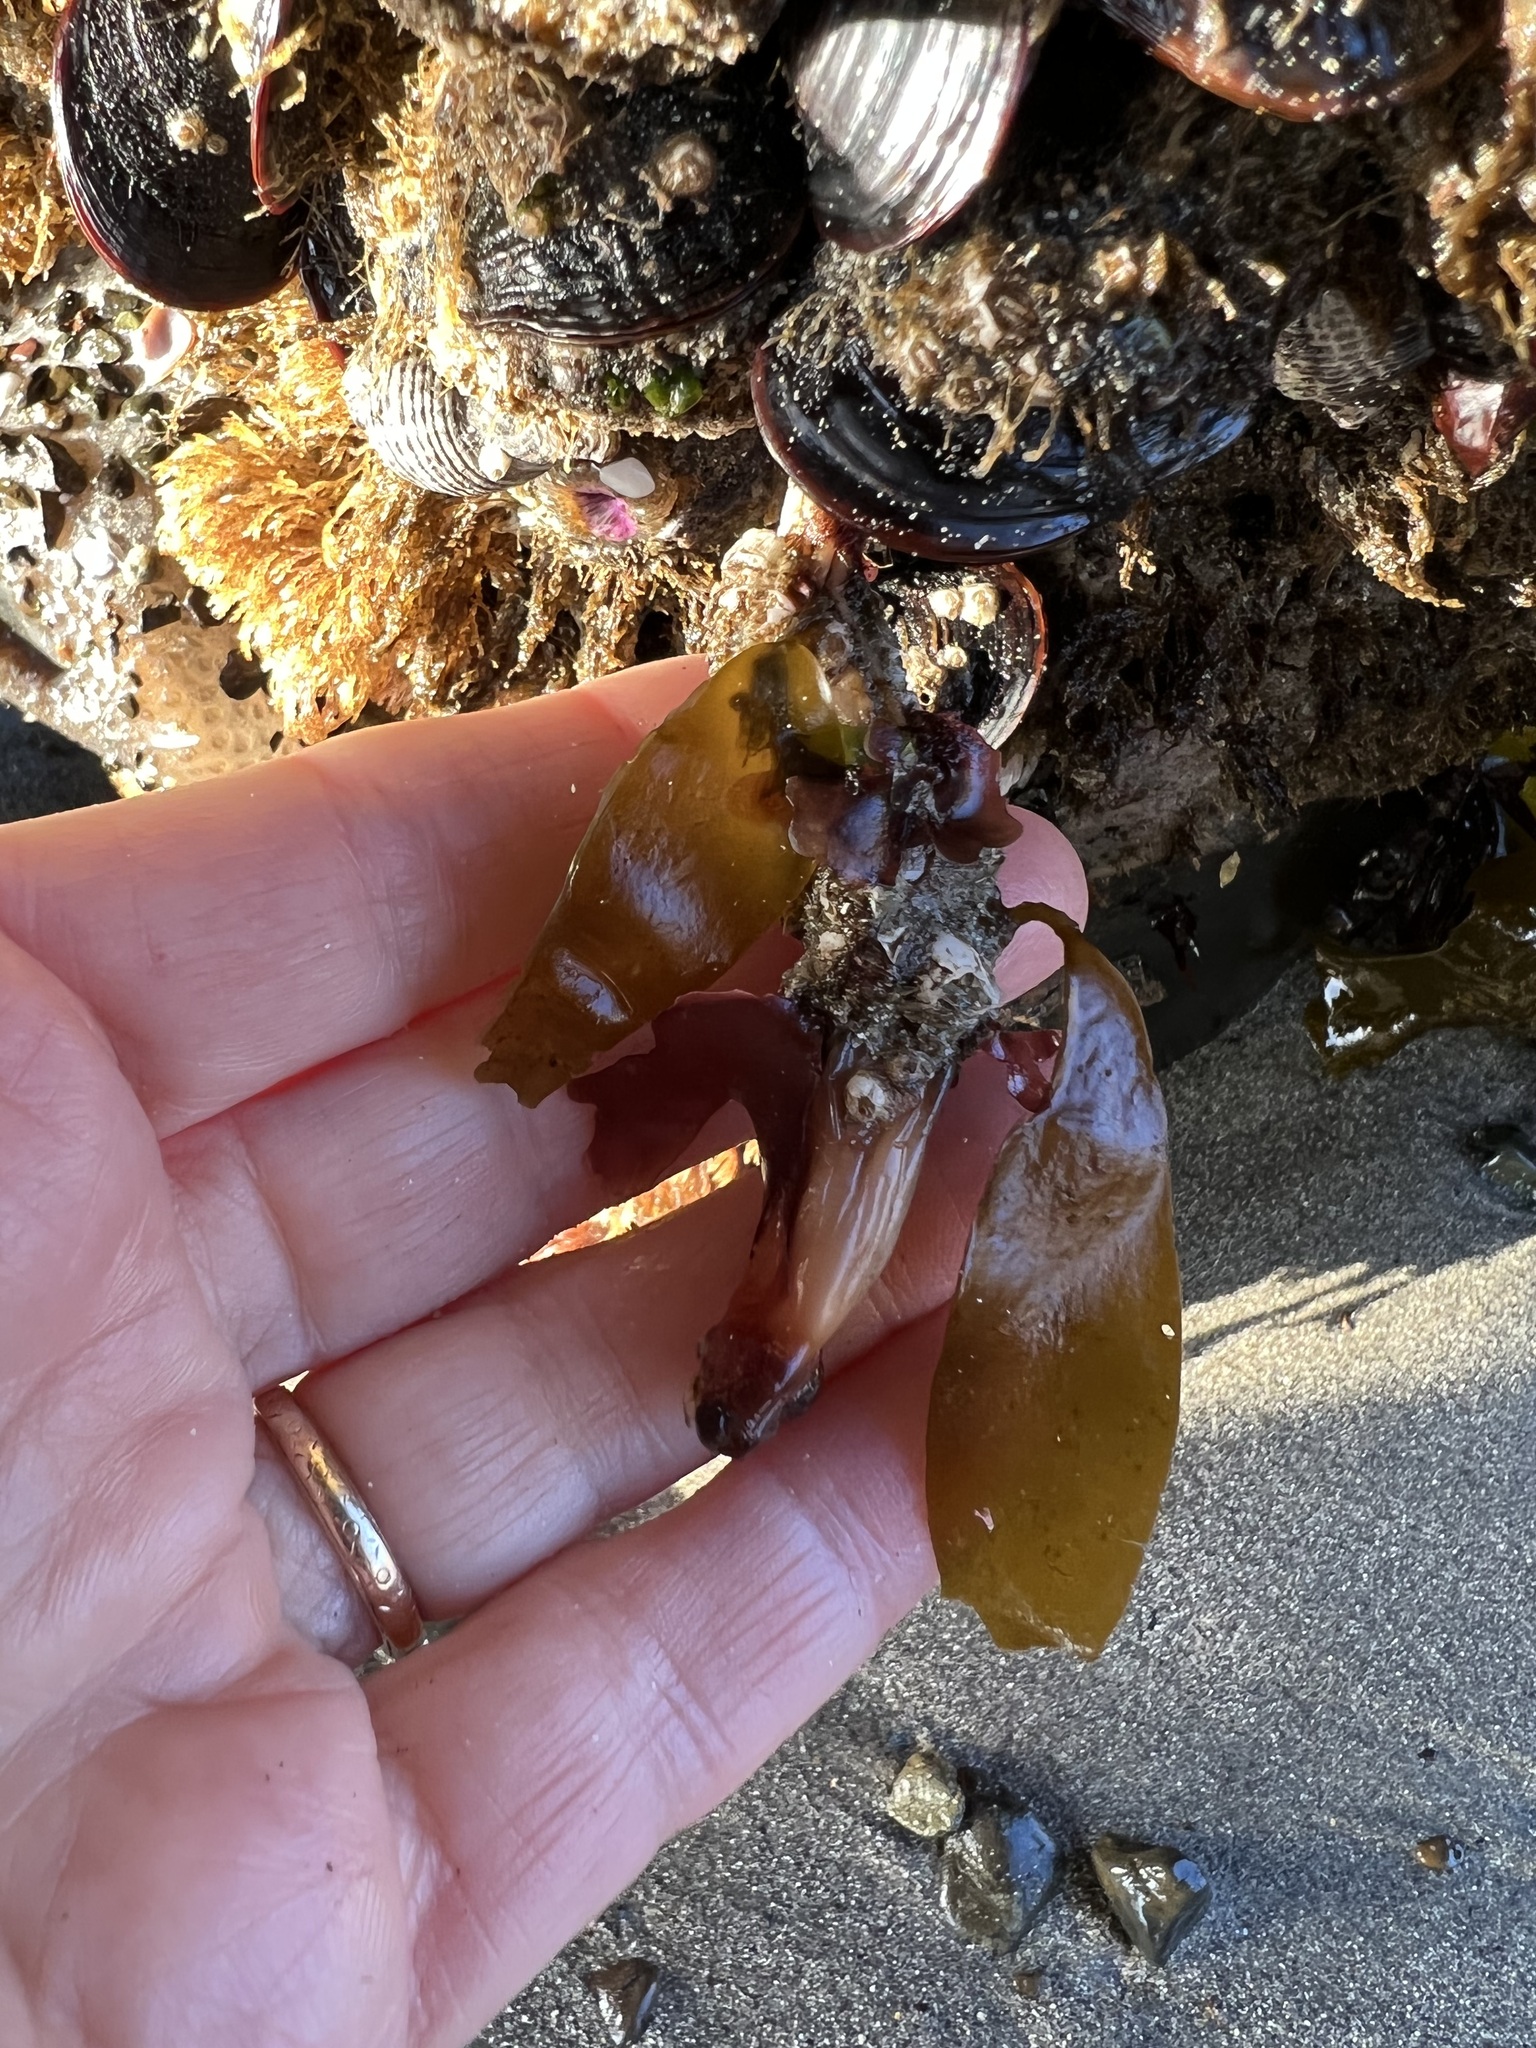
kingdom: Animalia
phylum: Chordata
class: Ascidiacea
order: Stolidobranchia
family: Styelidae
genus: Styela
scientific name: Styela montereyensis
